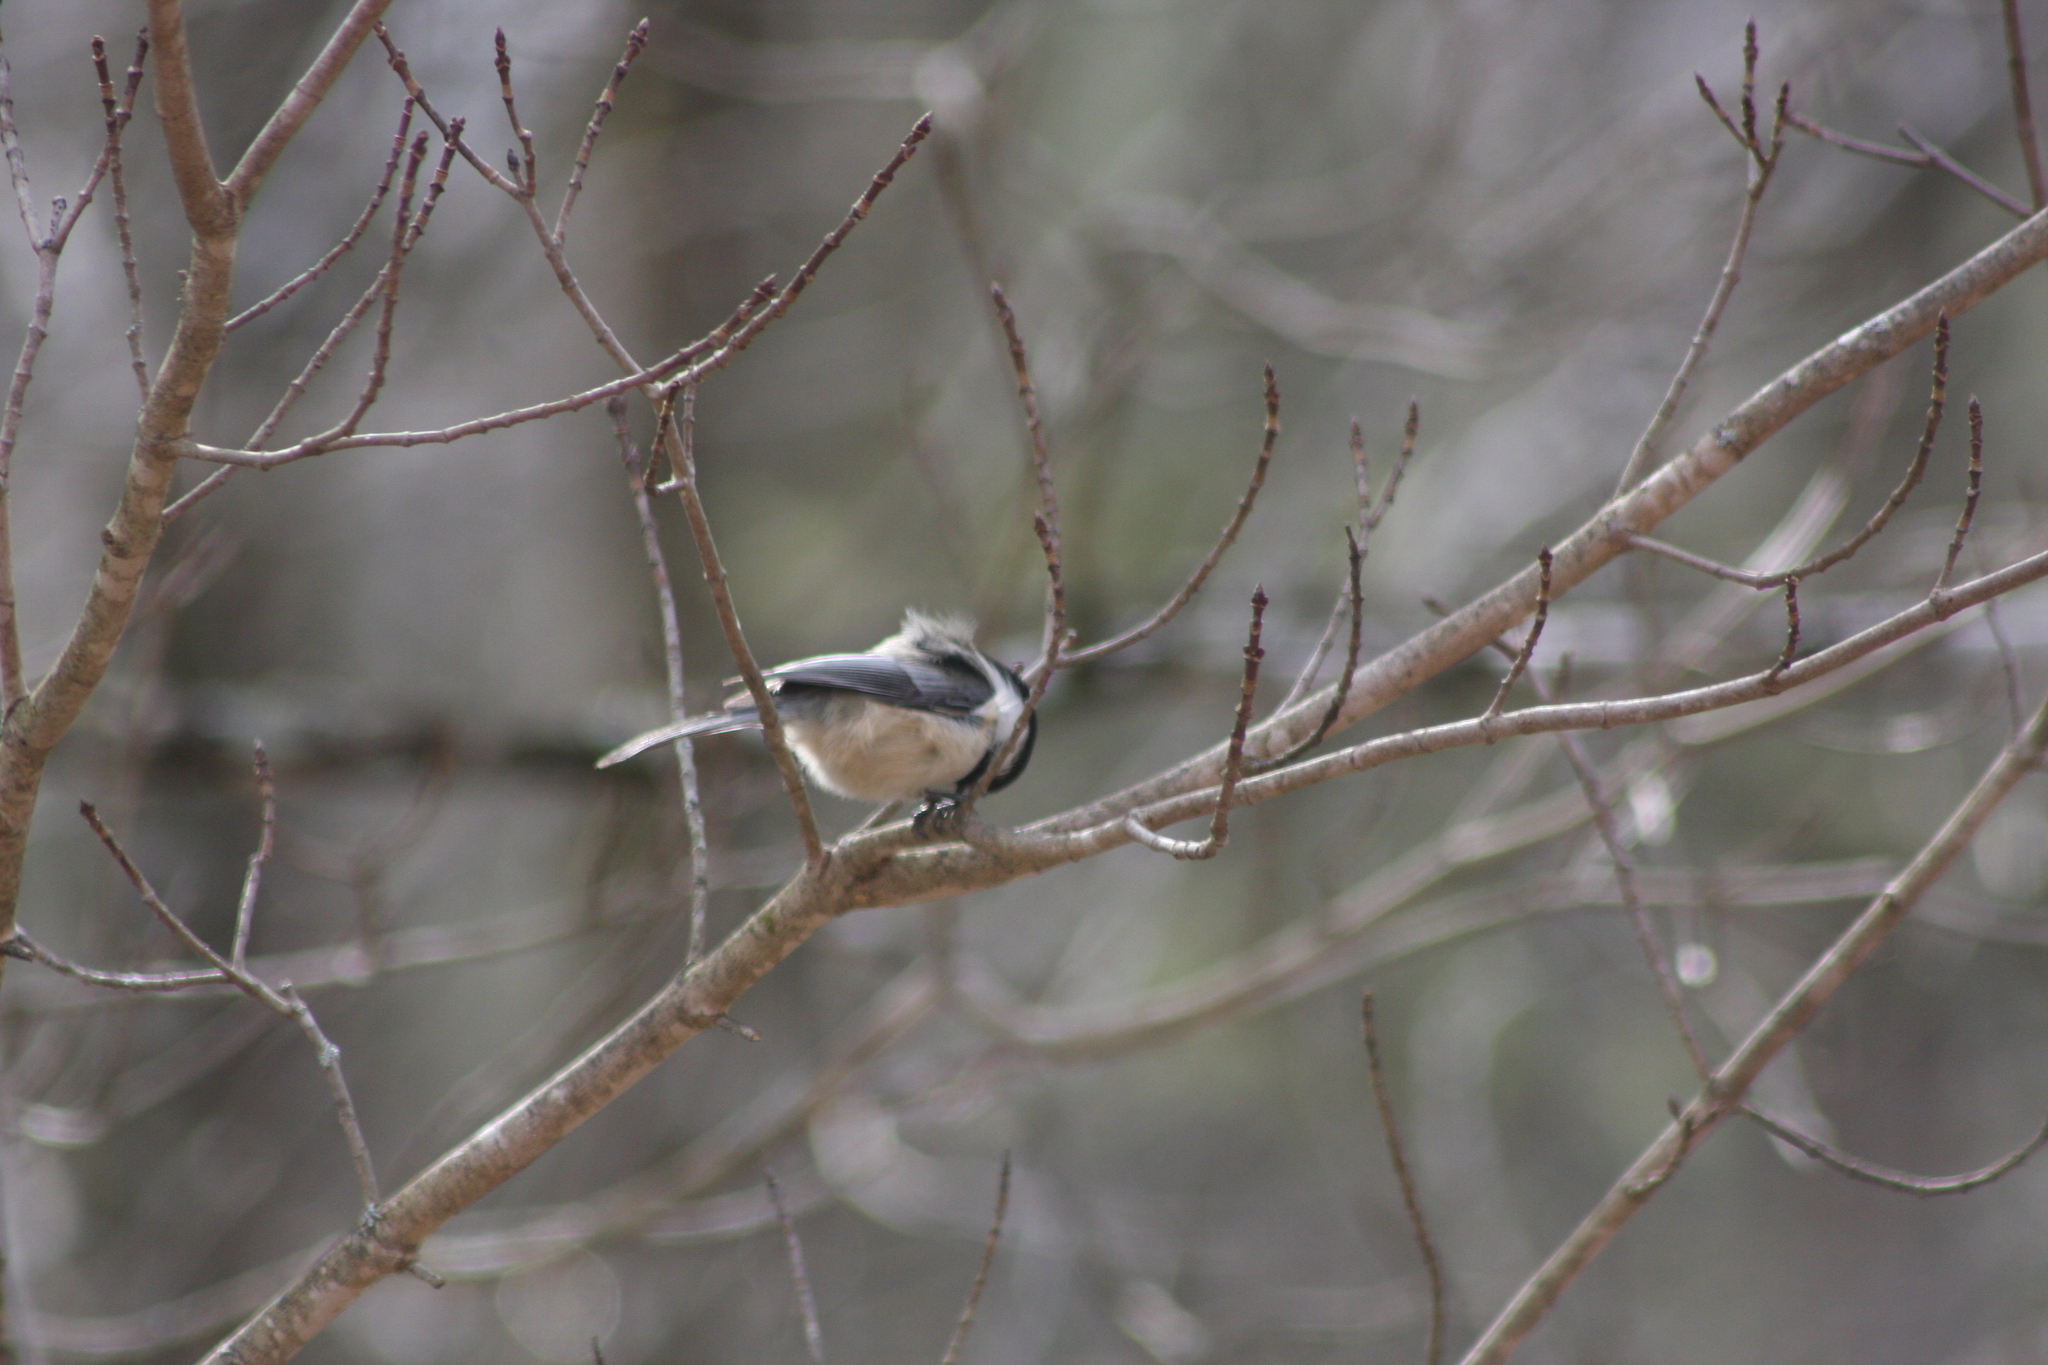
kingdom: Animalia
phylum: Chordata
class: Aves
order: Passeriformes
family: Paridae
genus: Poecile
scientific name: Poecile atricapillus
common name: Black-capped chickadee
